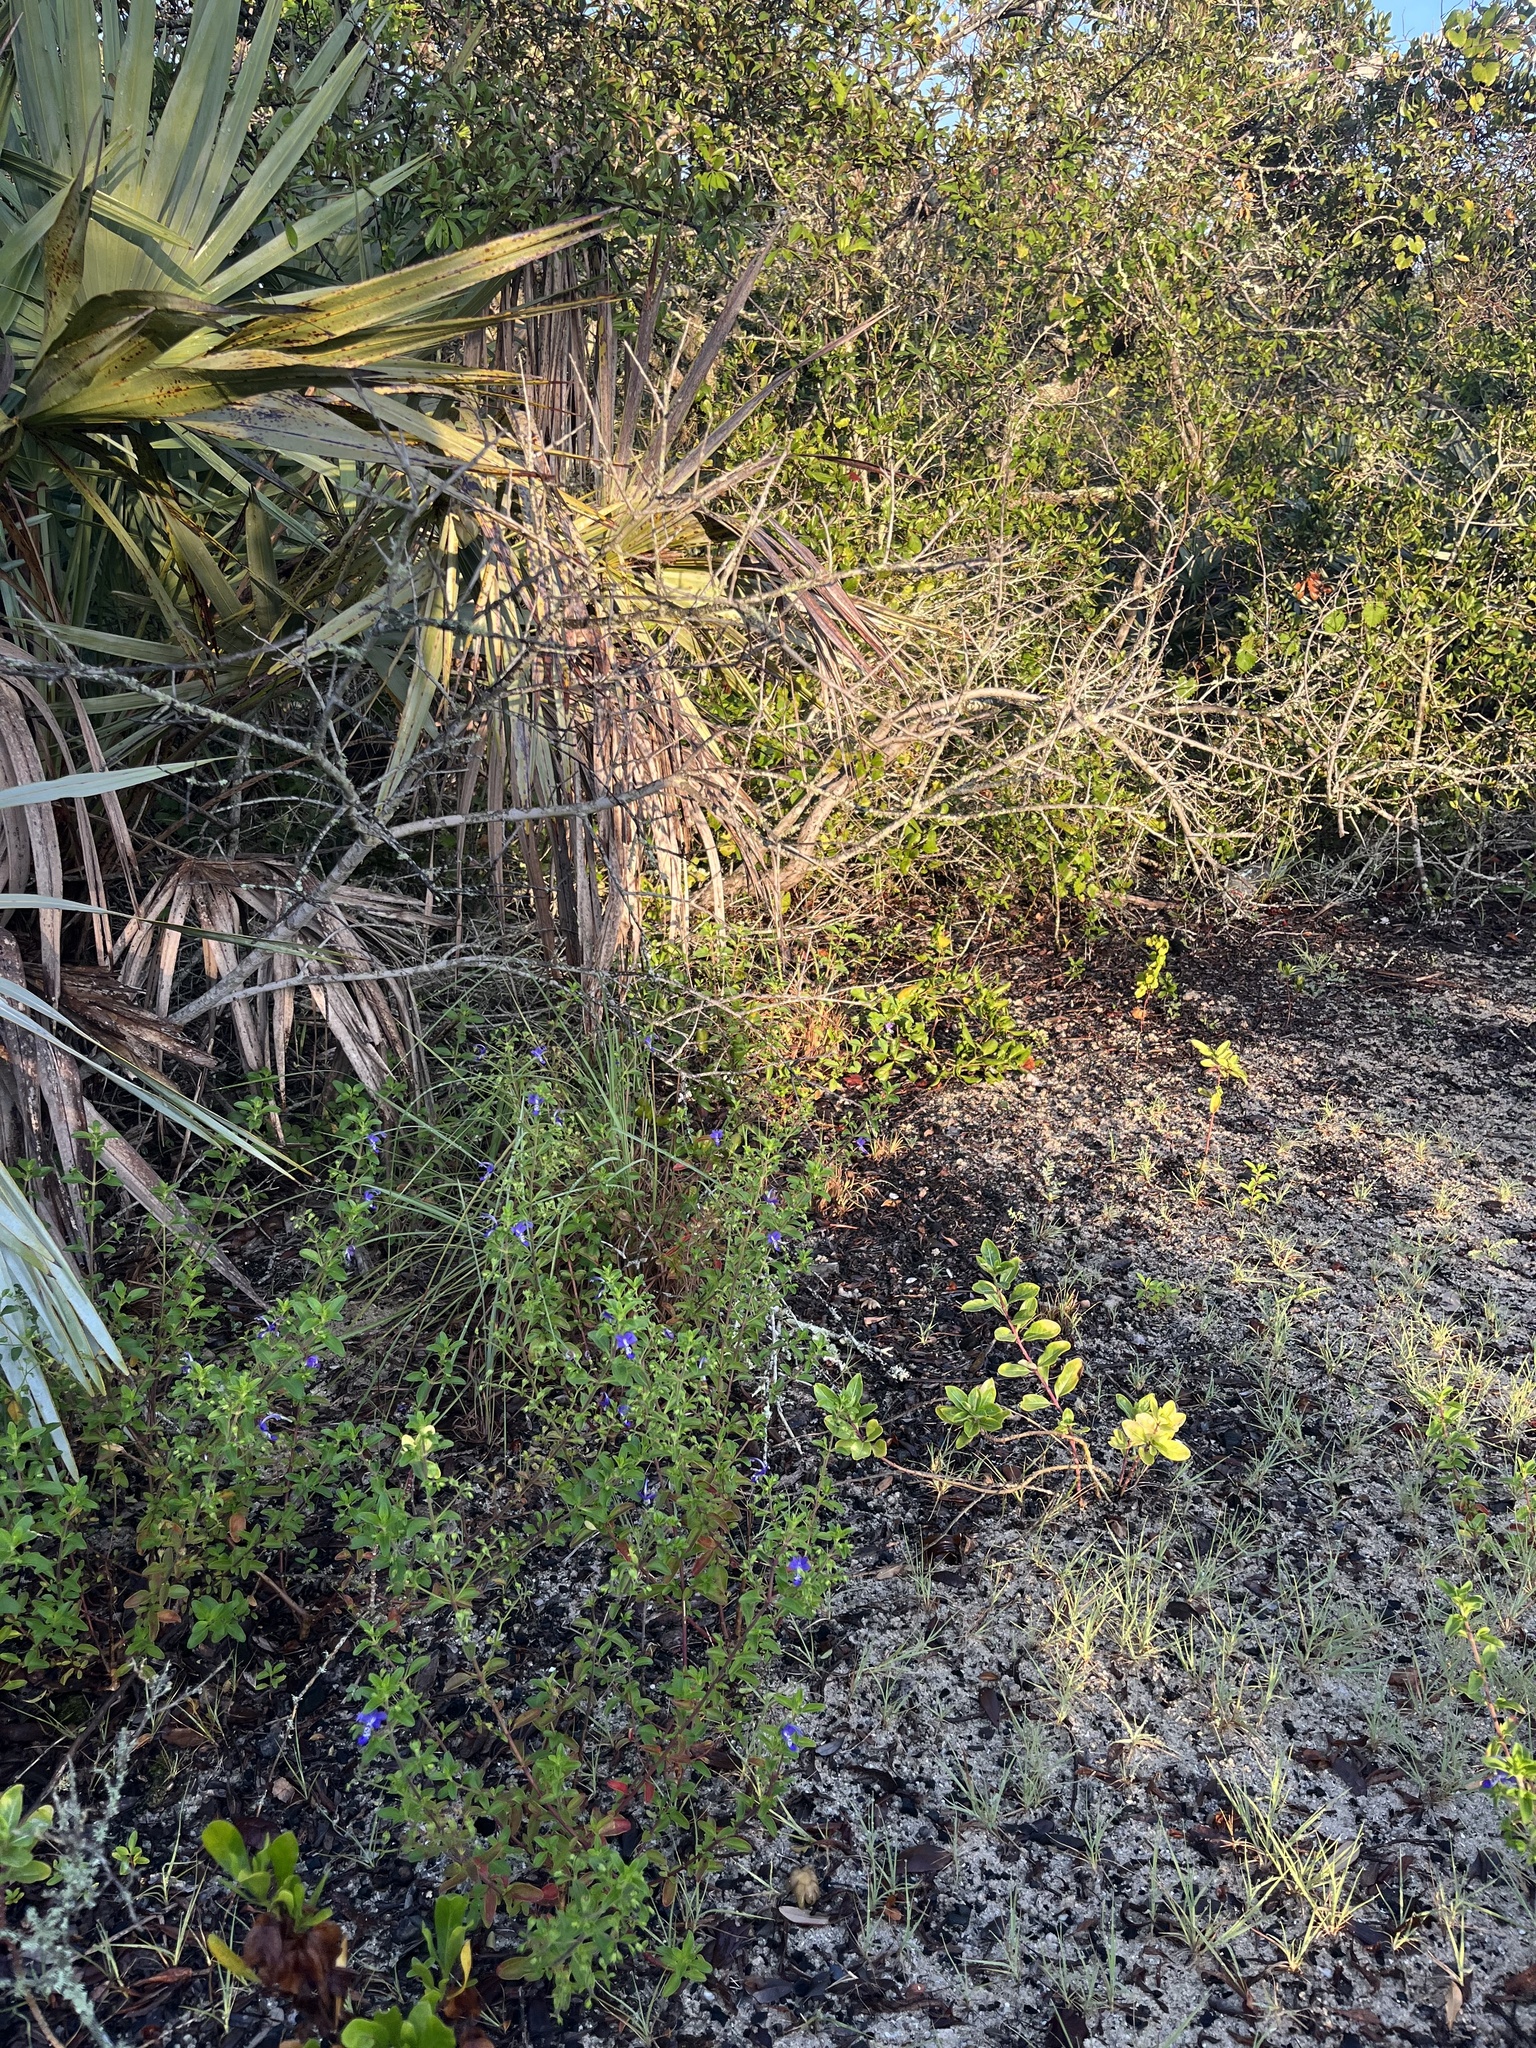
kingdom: Plantae
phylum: Tracheophyta
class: Magnoliopsida
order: Lamiales
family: Lamiaceae
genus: Trichostema
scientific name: Trichostema
